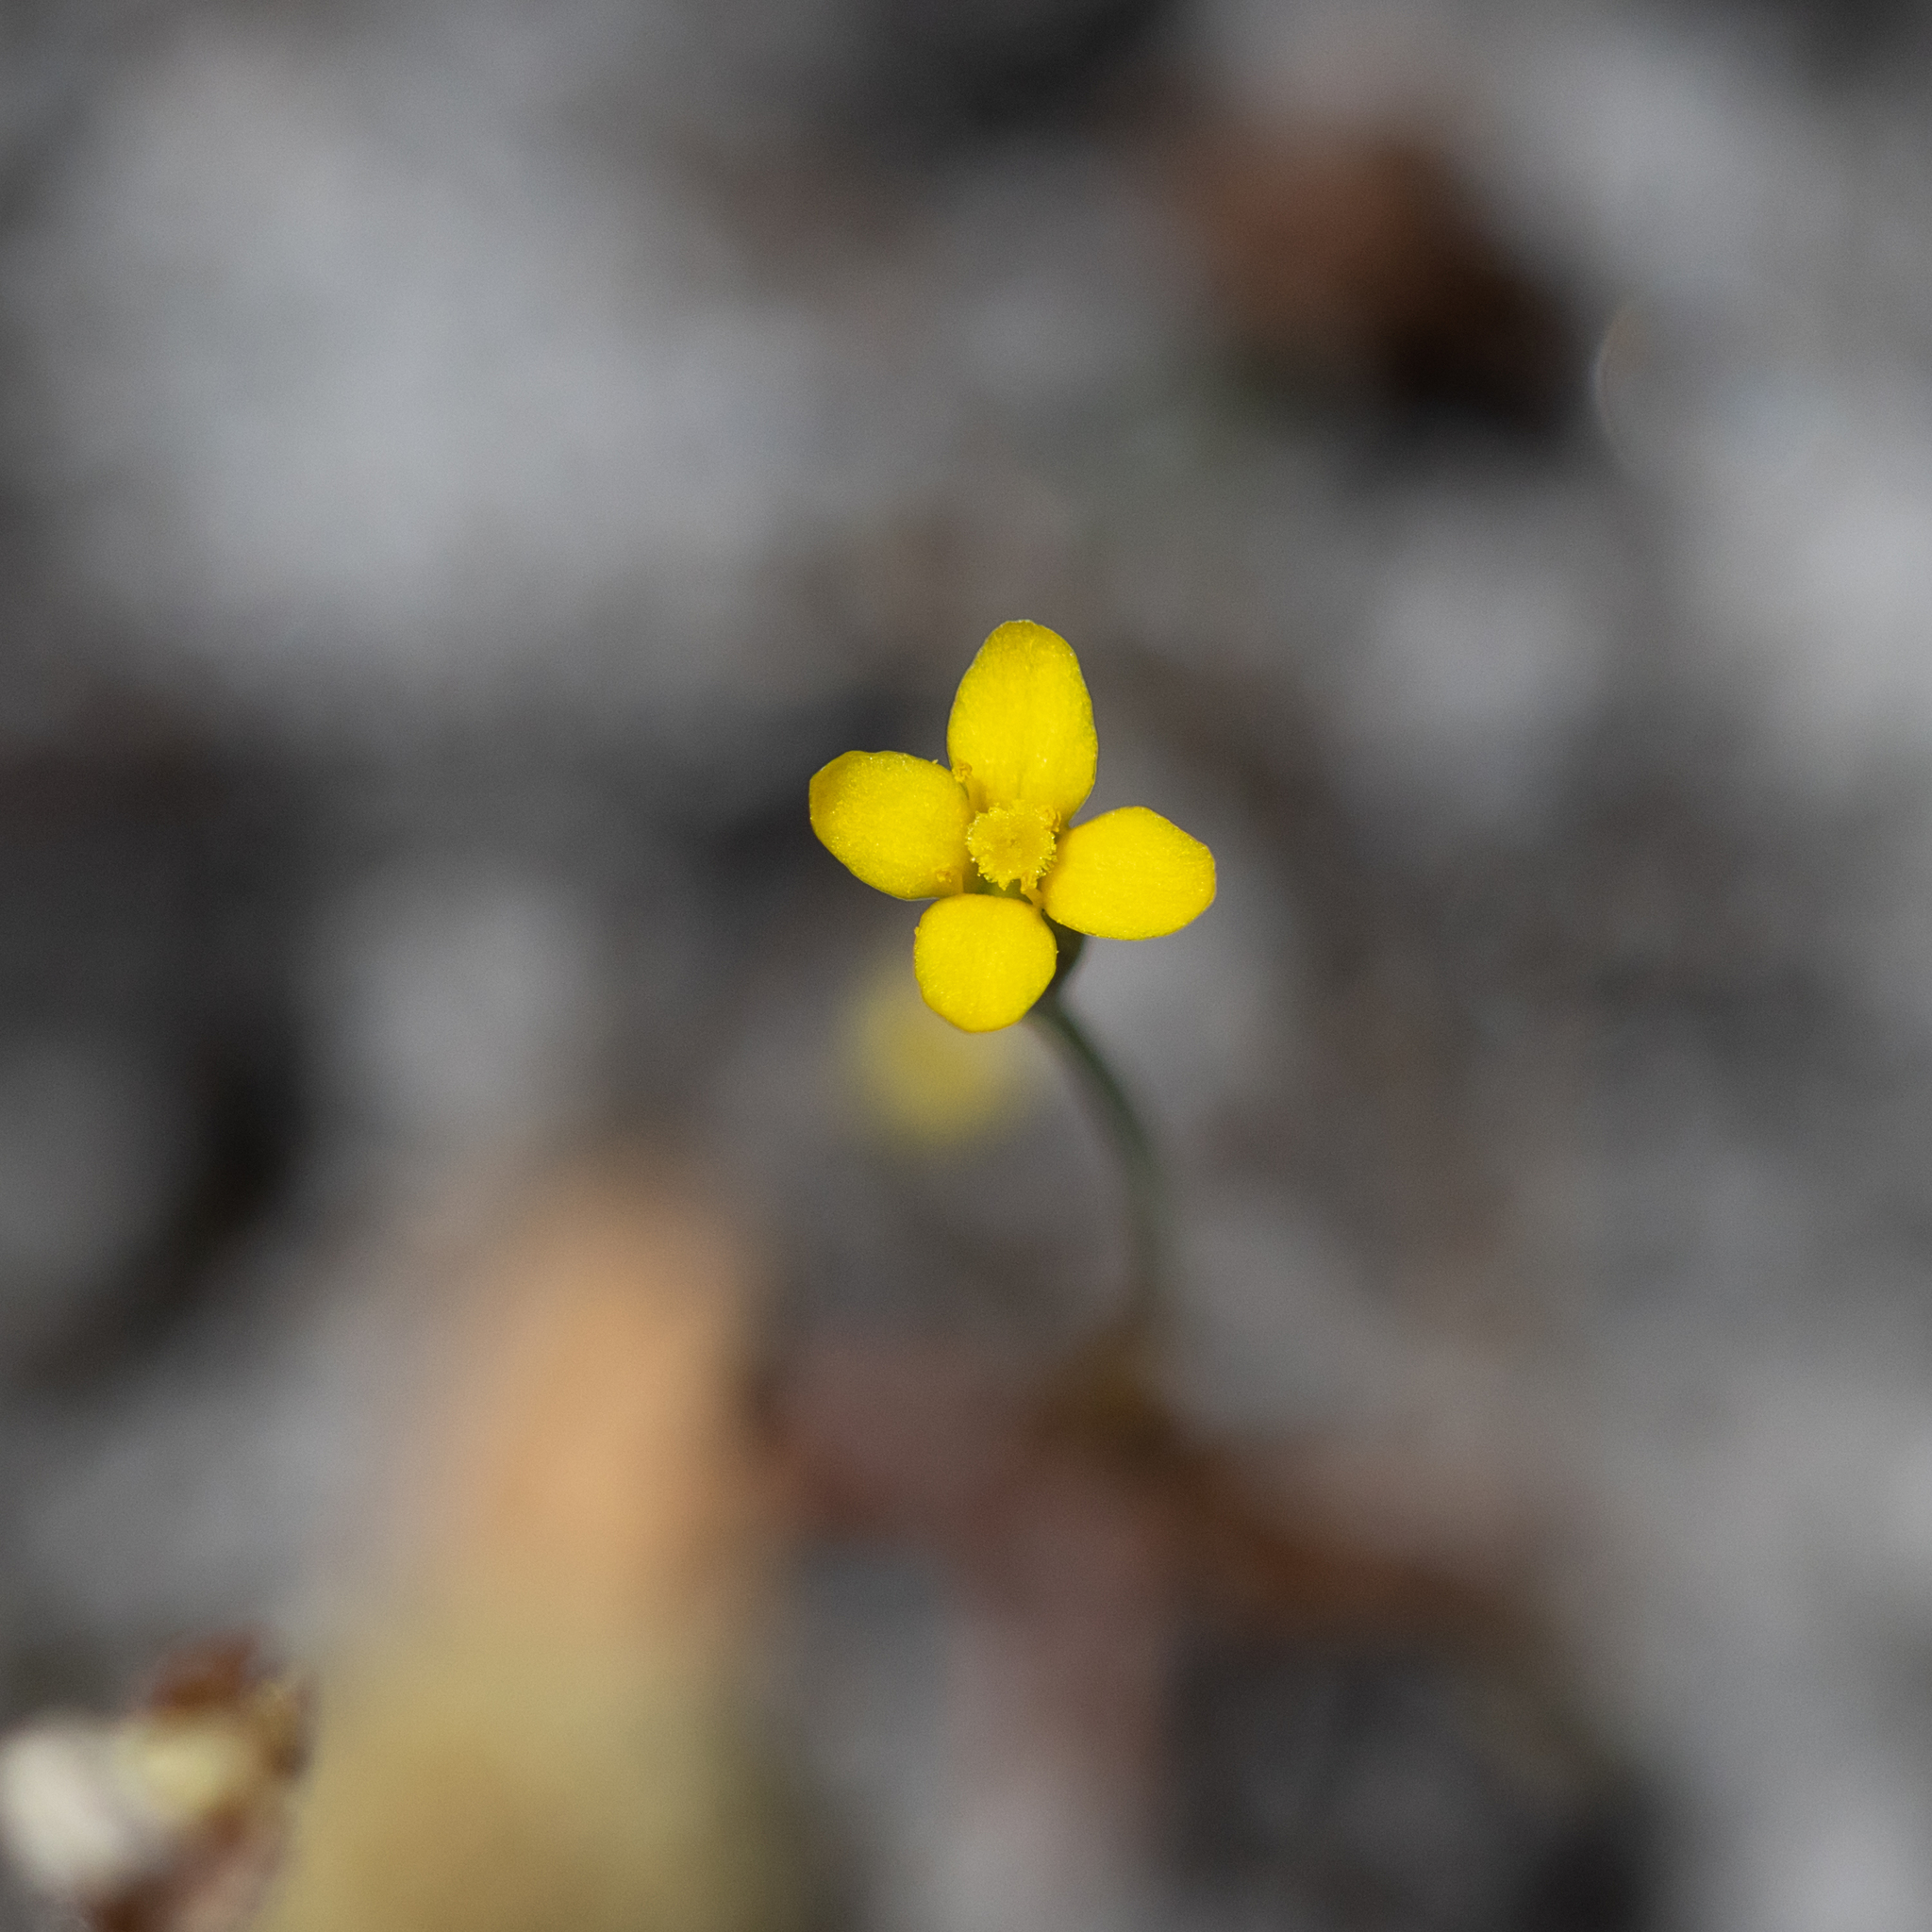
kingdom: Plantae
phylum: Tracheophyta
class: Magnoliopsida
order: Gentianales
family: Gentianaceae
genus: Cicendia
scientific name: Cicendia filiformis
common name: Yellow centaury
